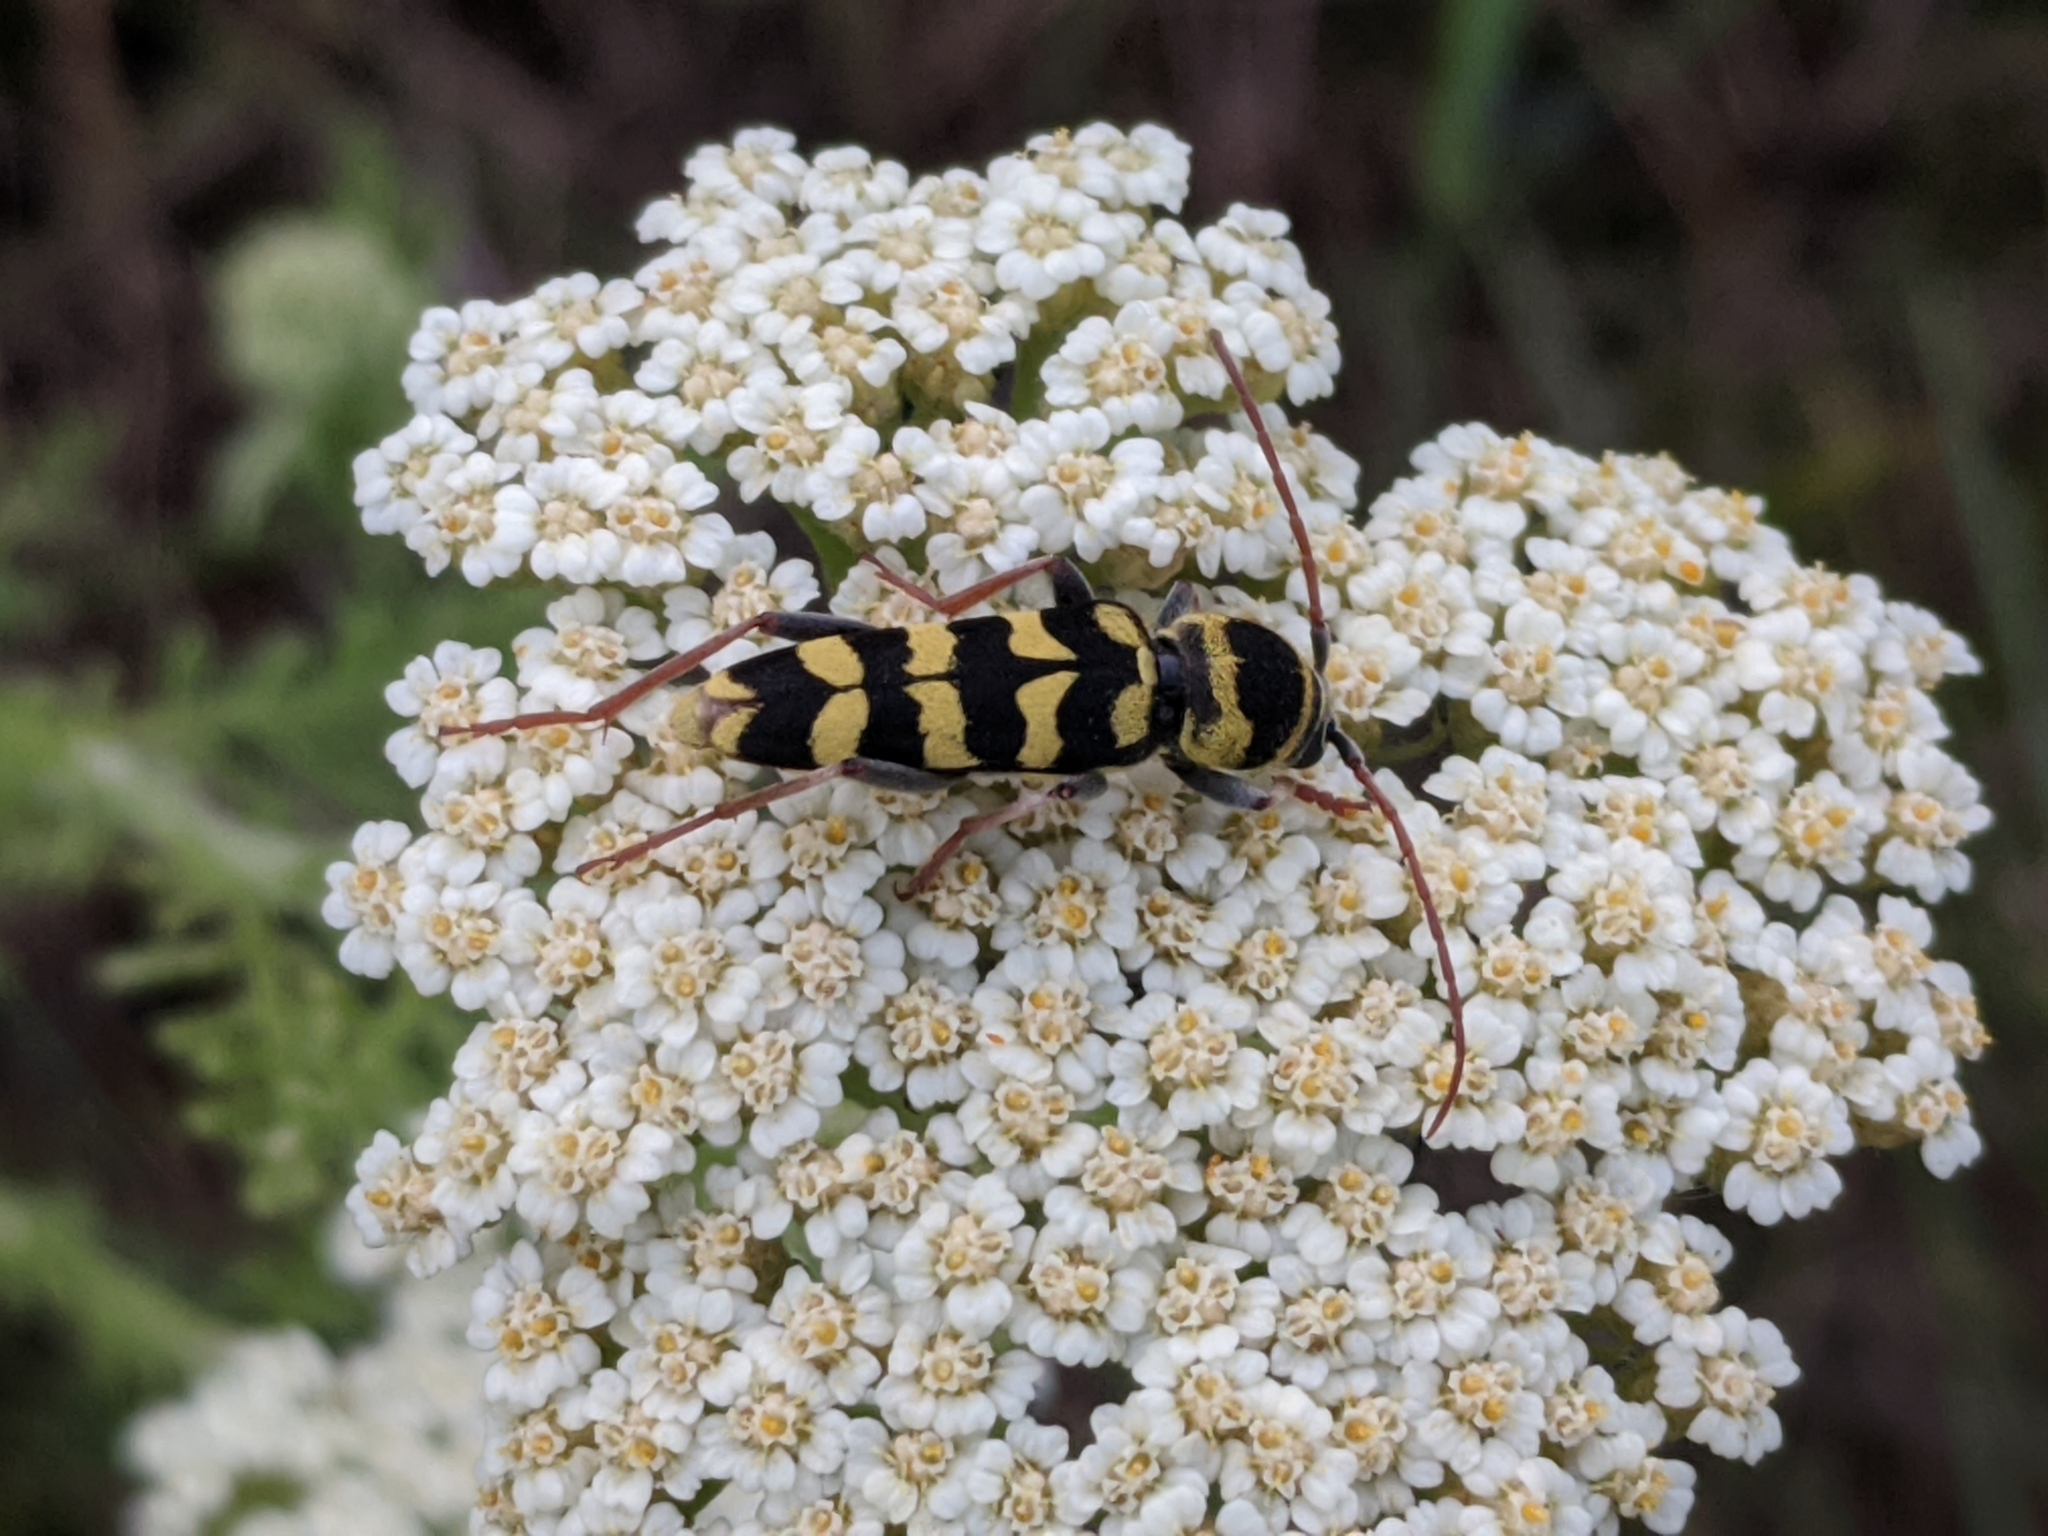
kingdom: Animalia
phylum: Arthropoda
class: Insecta
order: Coleoptera
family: Cerambycidae
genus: Plagionotus
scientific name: Plagionotus floralis
